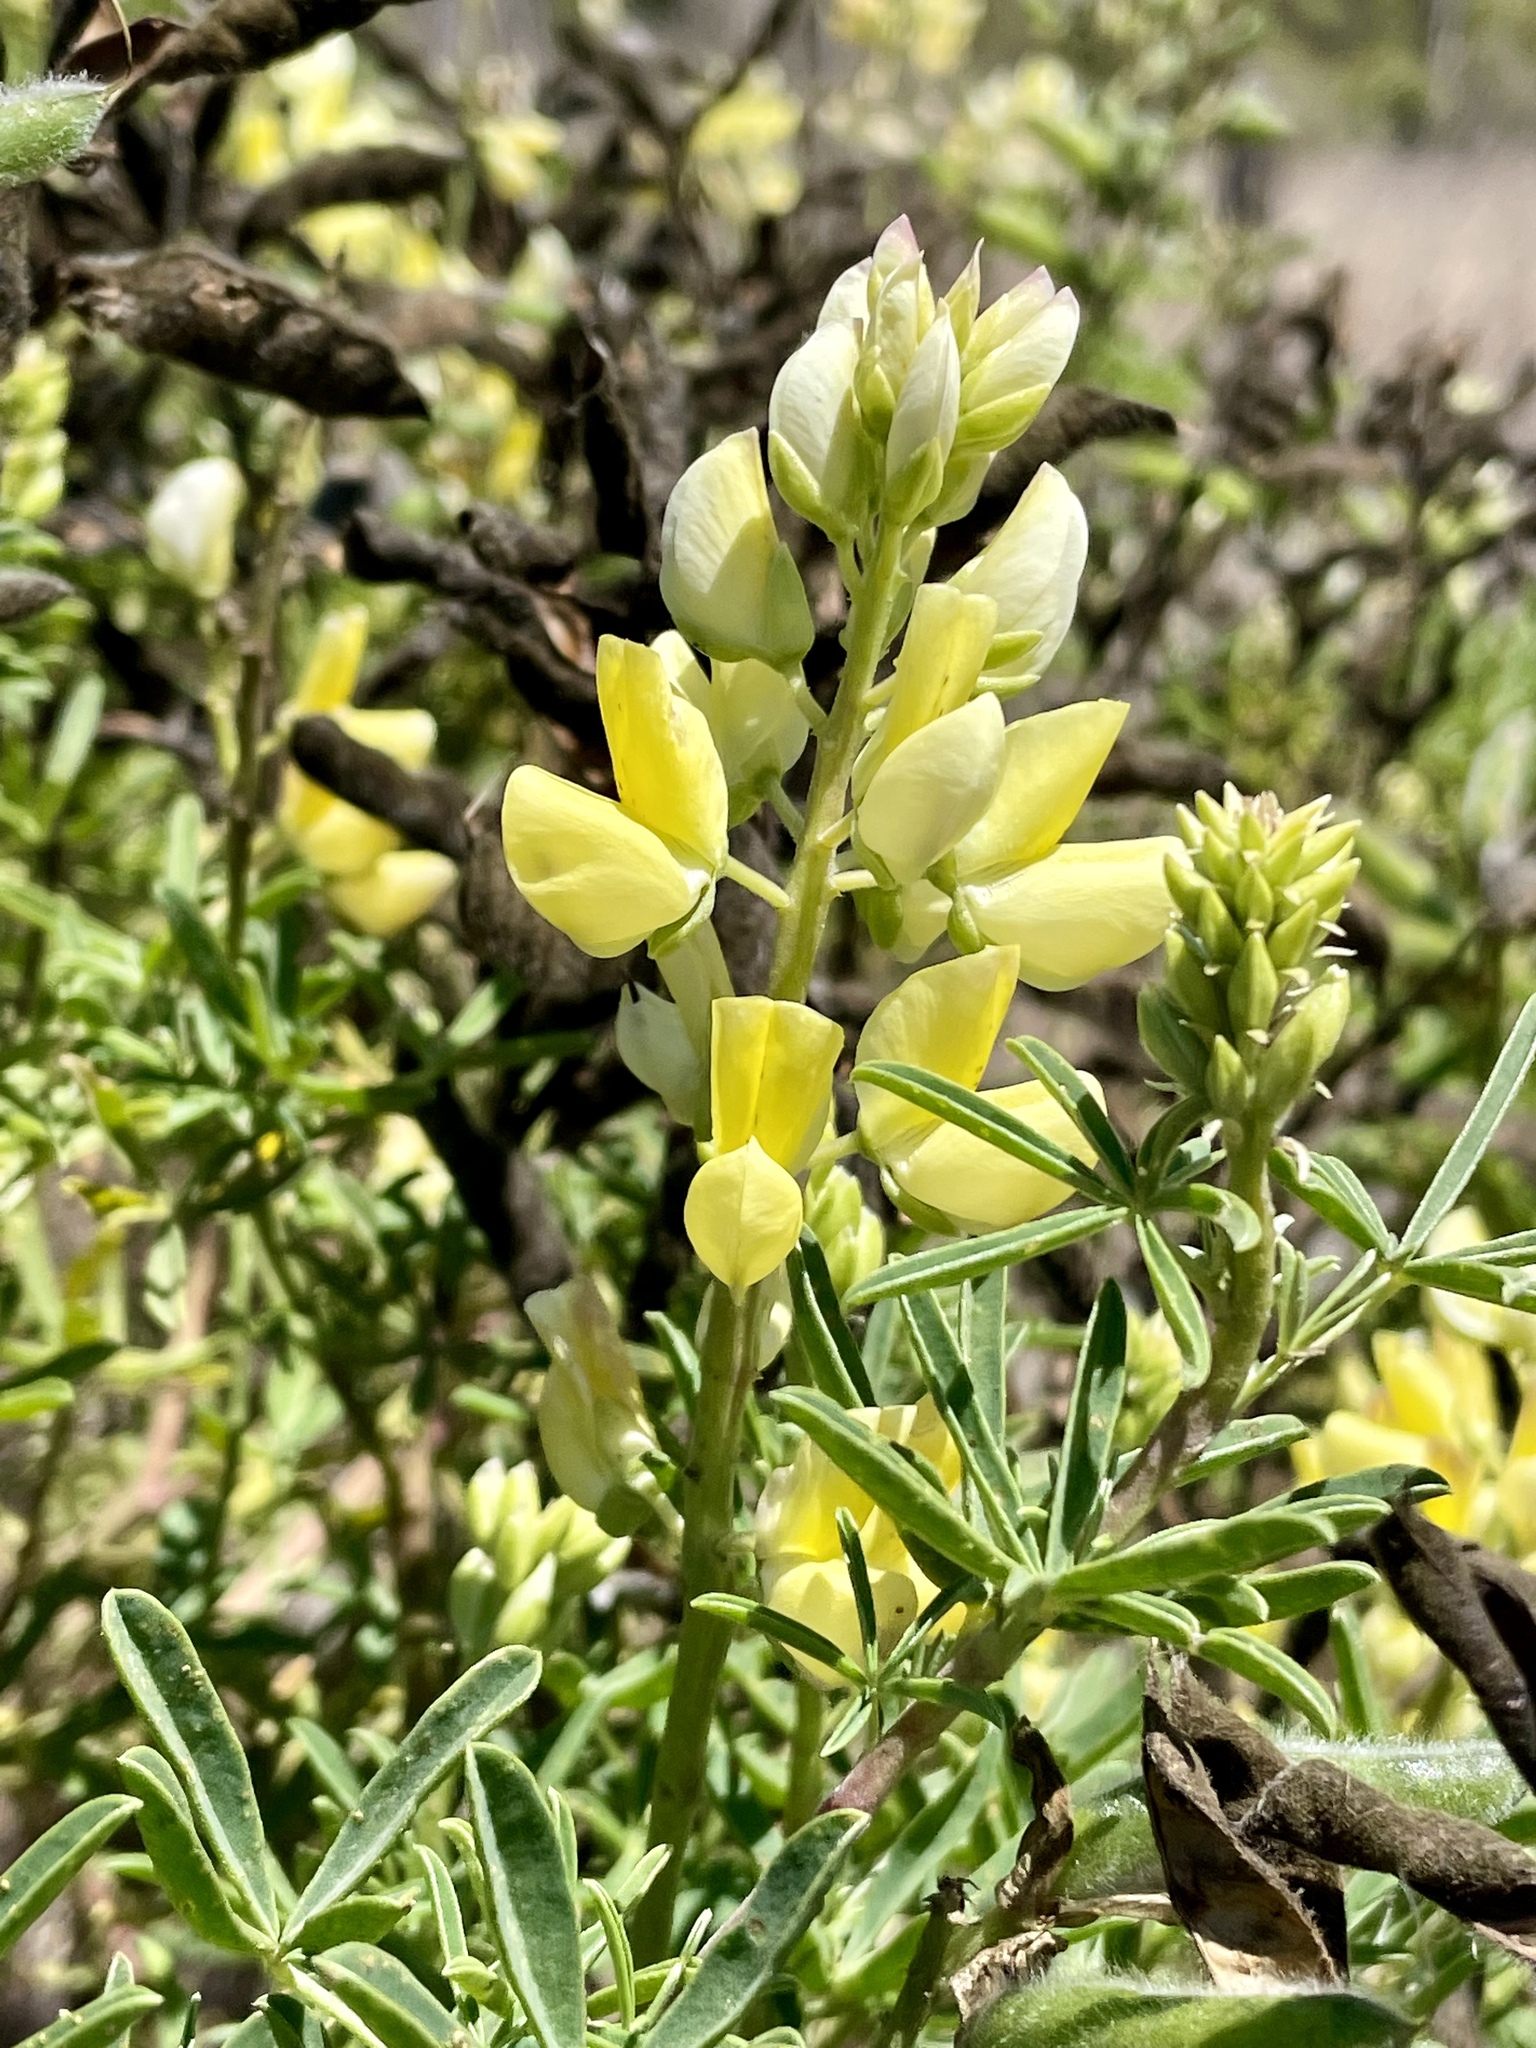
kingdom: Plantae
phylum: Tracheophyta
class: Magnoliopsida
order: Fabales
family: Fabaceae
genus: Lupinus
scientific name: Lupinus arboreus
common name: Yellow bush lupine
